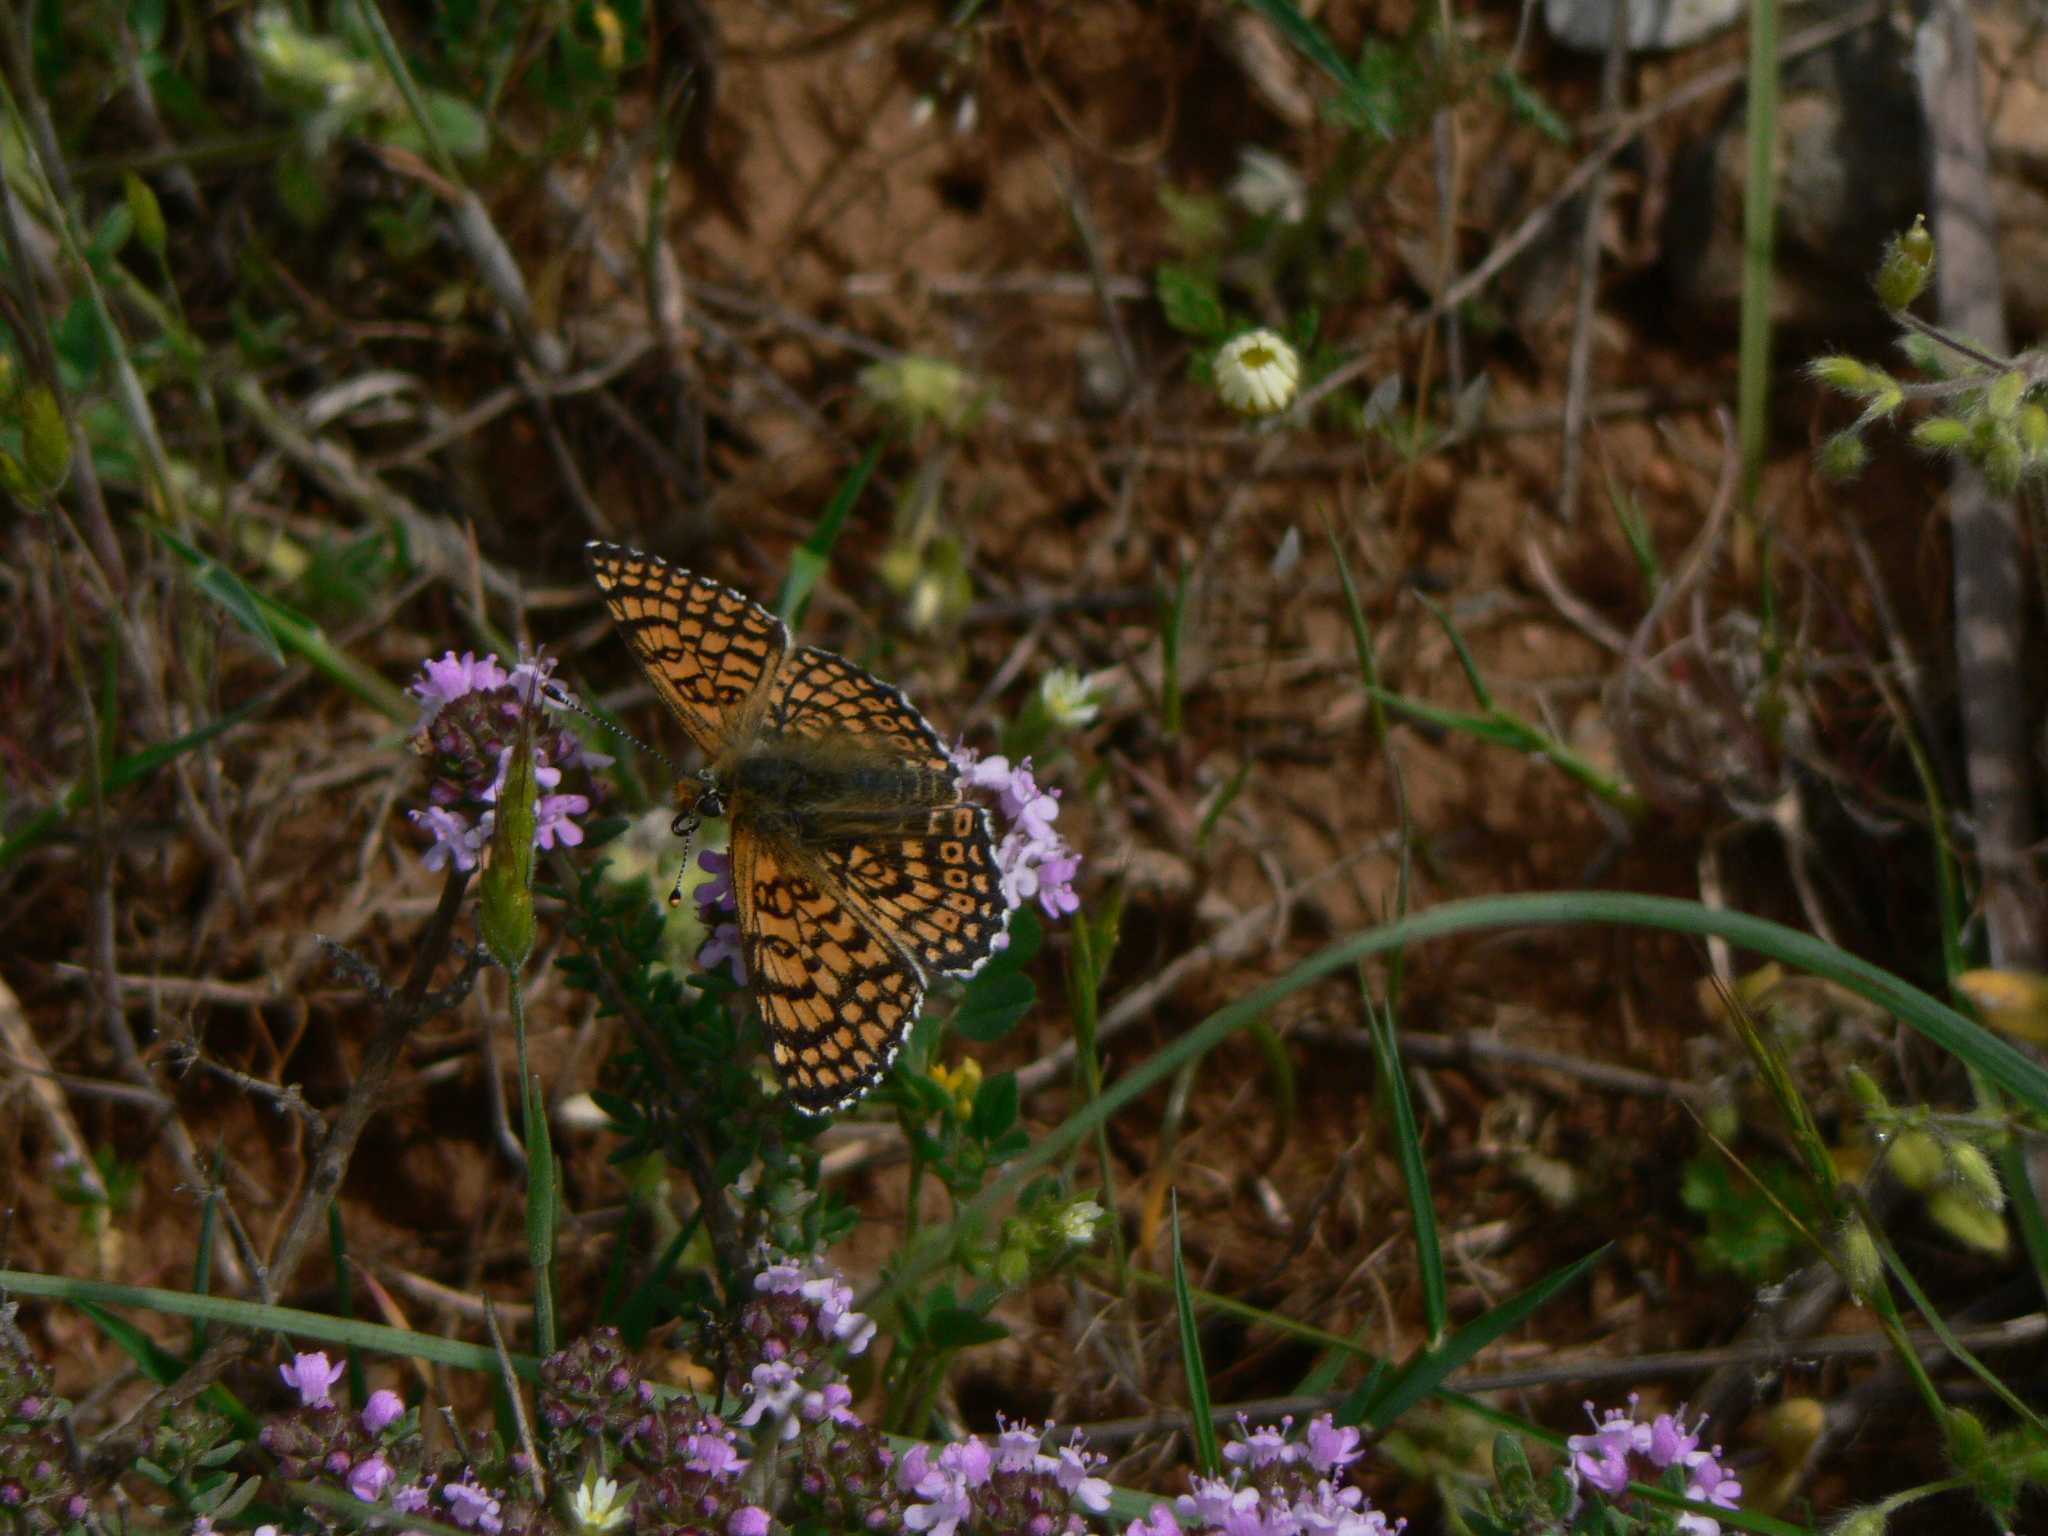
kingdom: Animalia
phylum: Arthropoda
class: Insecta
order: Lepidoptera
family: Nymphalidae
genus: Melitaea
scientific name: Melitaea cinxia
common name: Glanville fritillary
